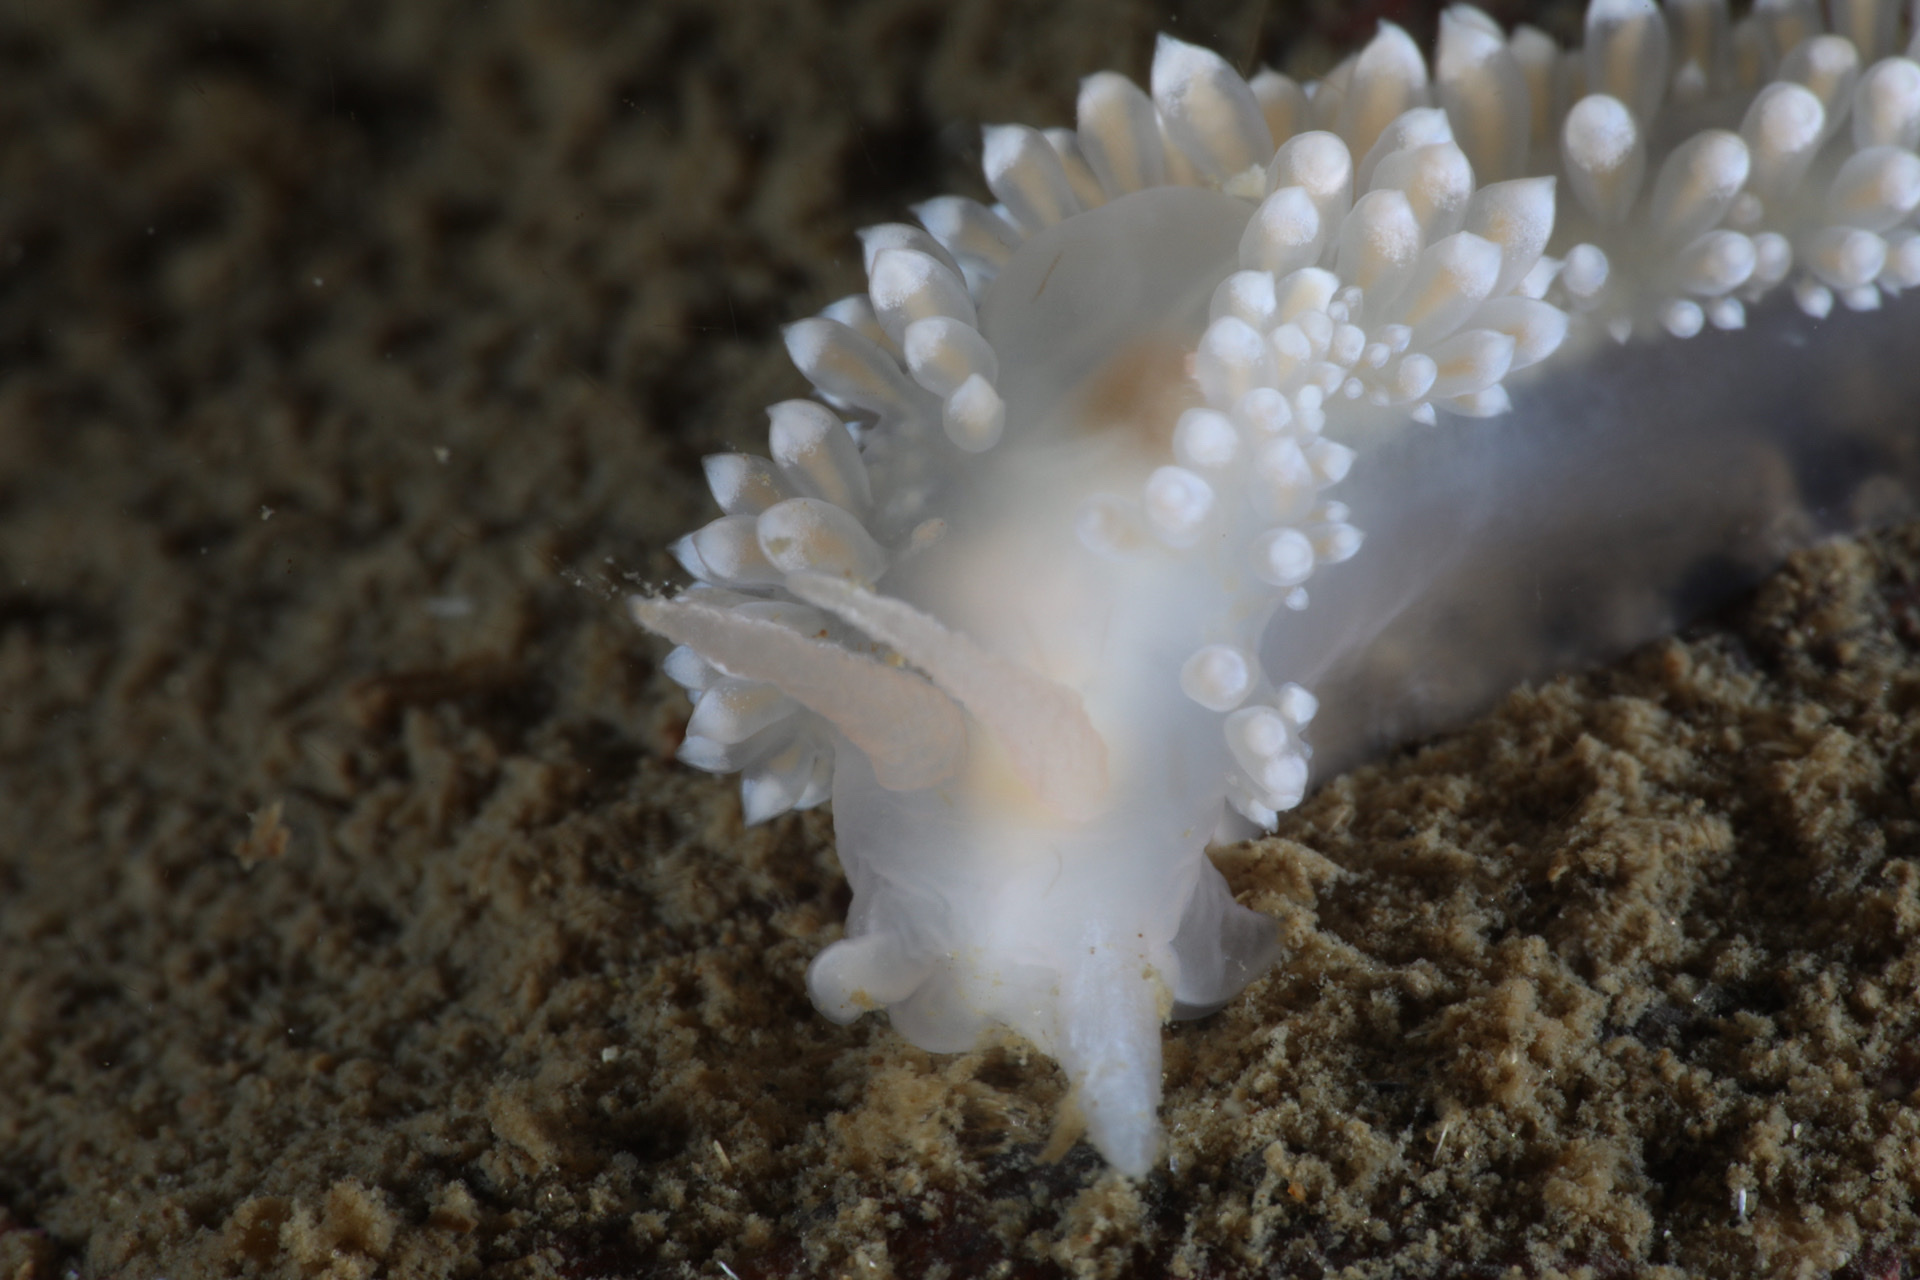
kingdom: Animalia
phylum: Mollusca
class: Gastropoda
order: Nudibranchia
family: Coryphellidae
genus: Coryphella
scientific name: Coryphella verrucosa
